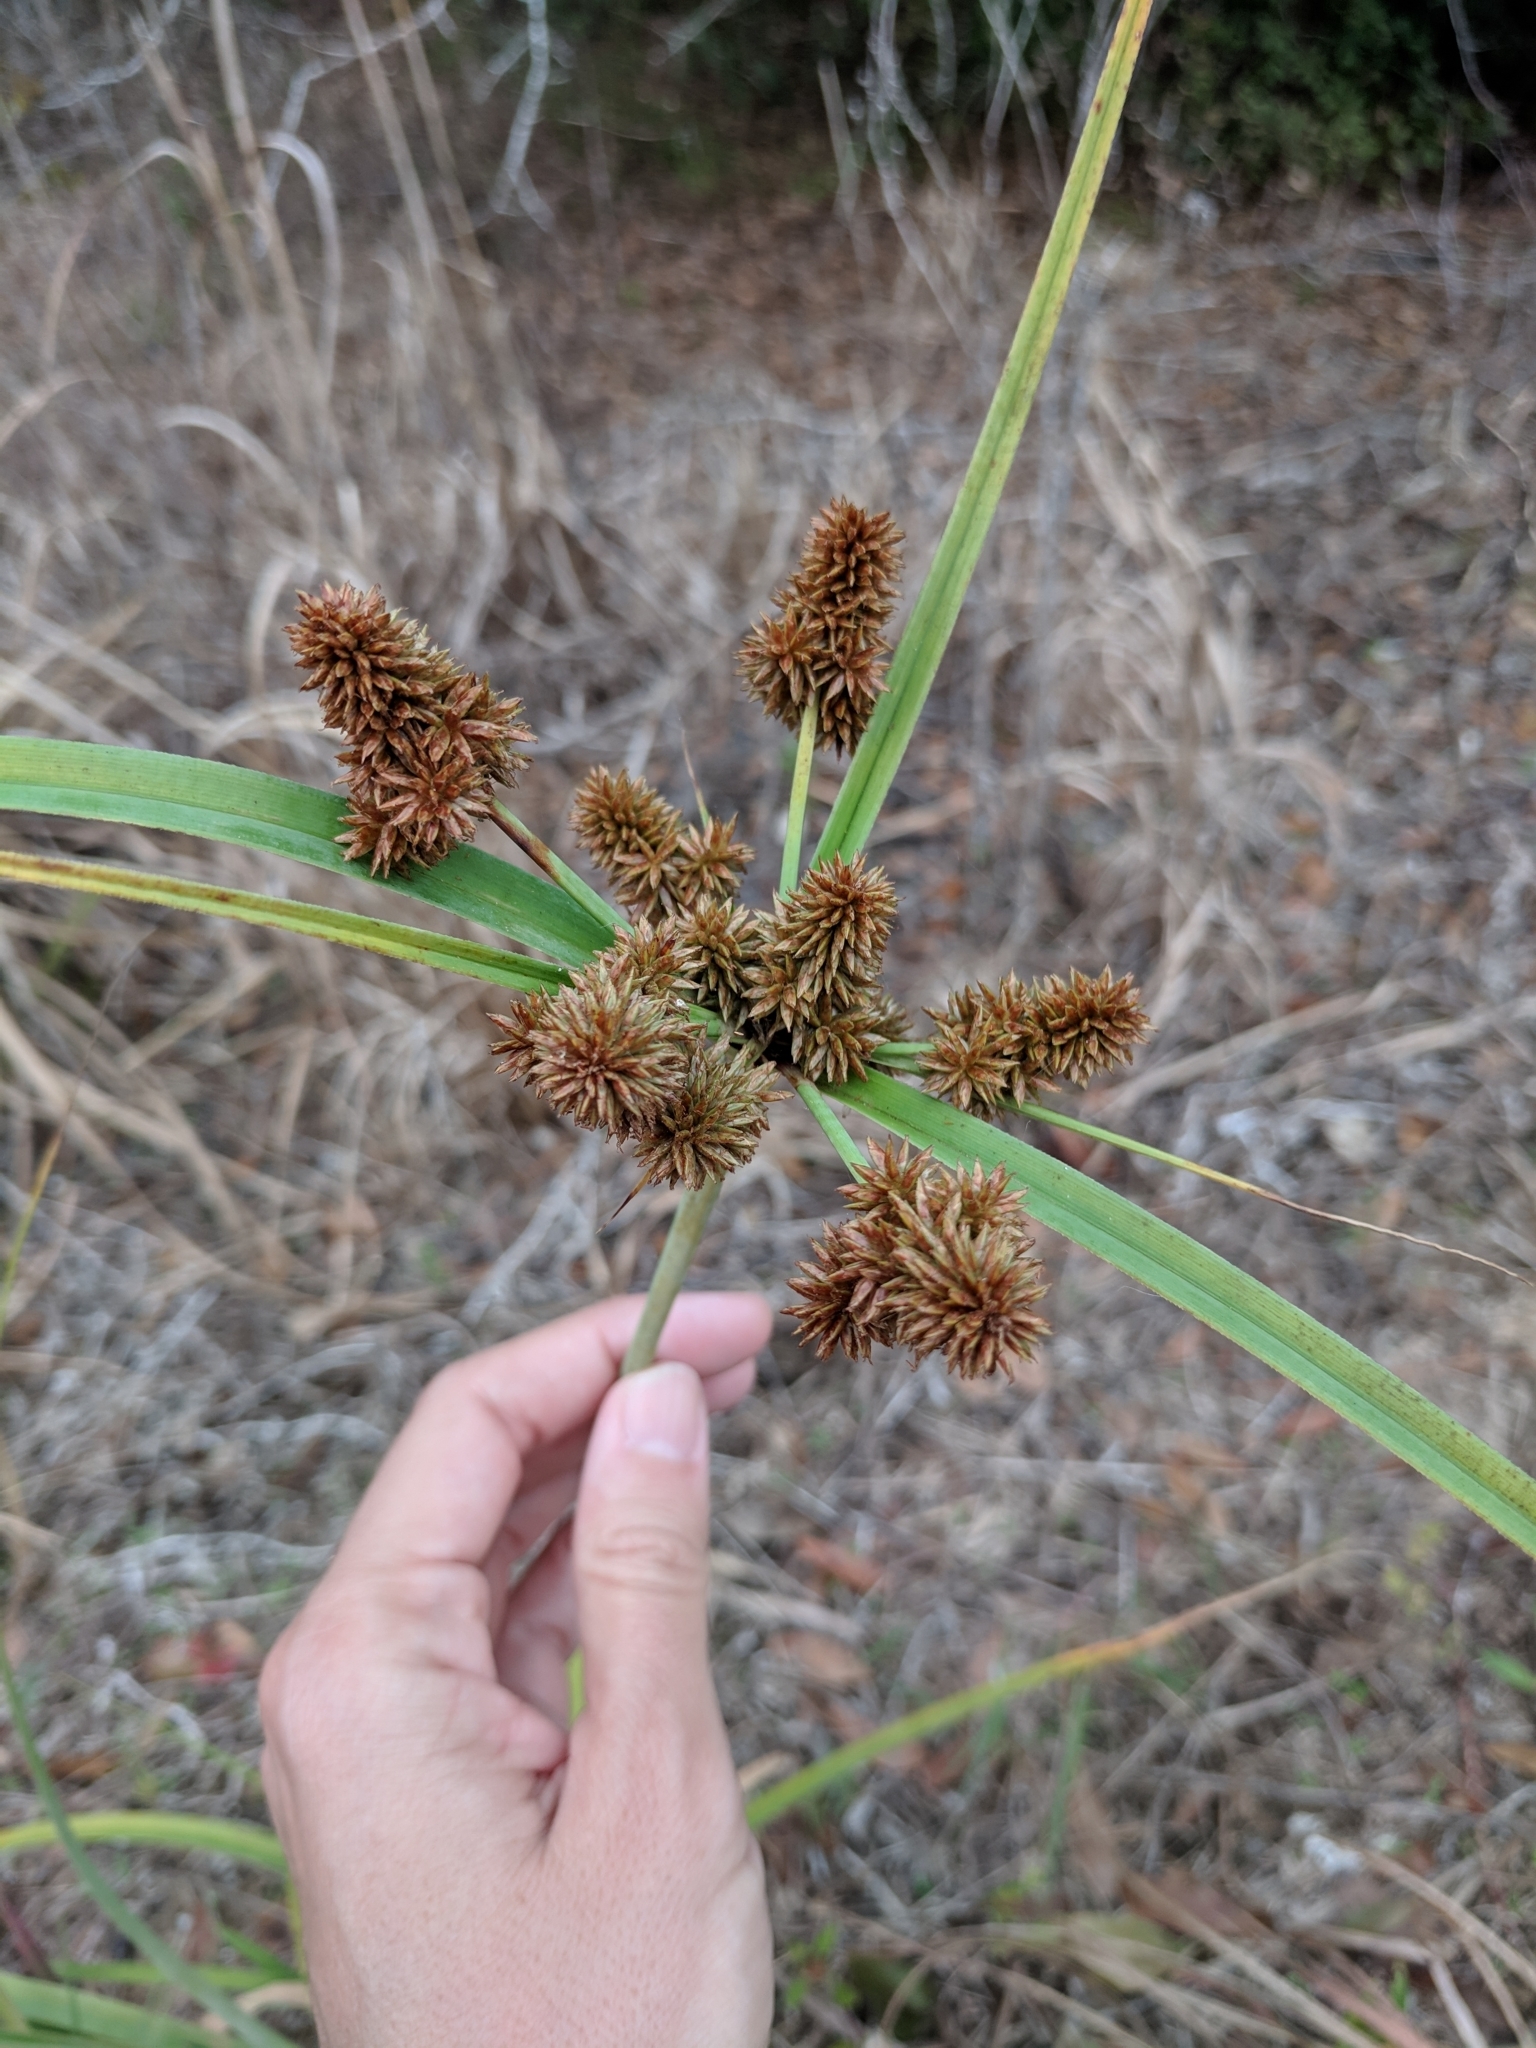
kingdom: Plantae
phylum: Tracheophyta
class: Liliopsida
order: Poales
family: Cyperaceae
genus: Cyperus
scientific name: Cyperus ligularis
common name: Swamp flat sedge
